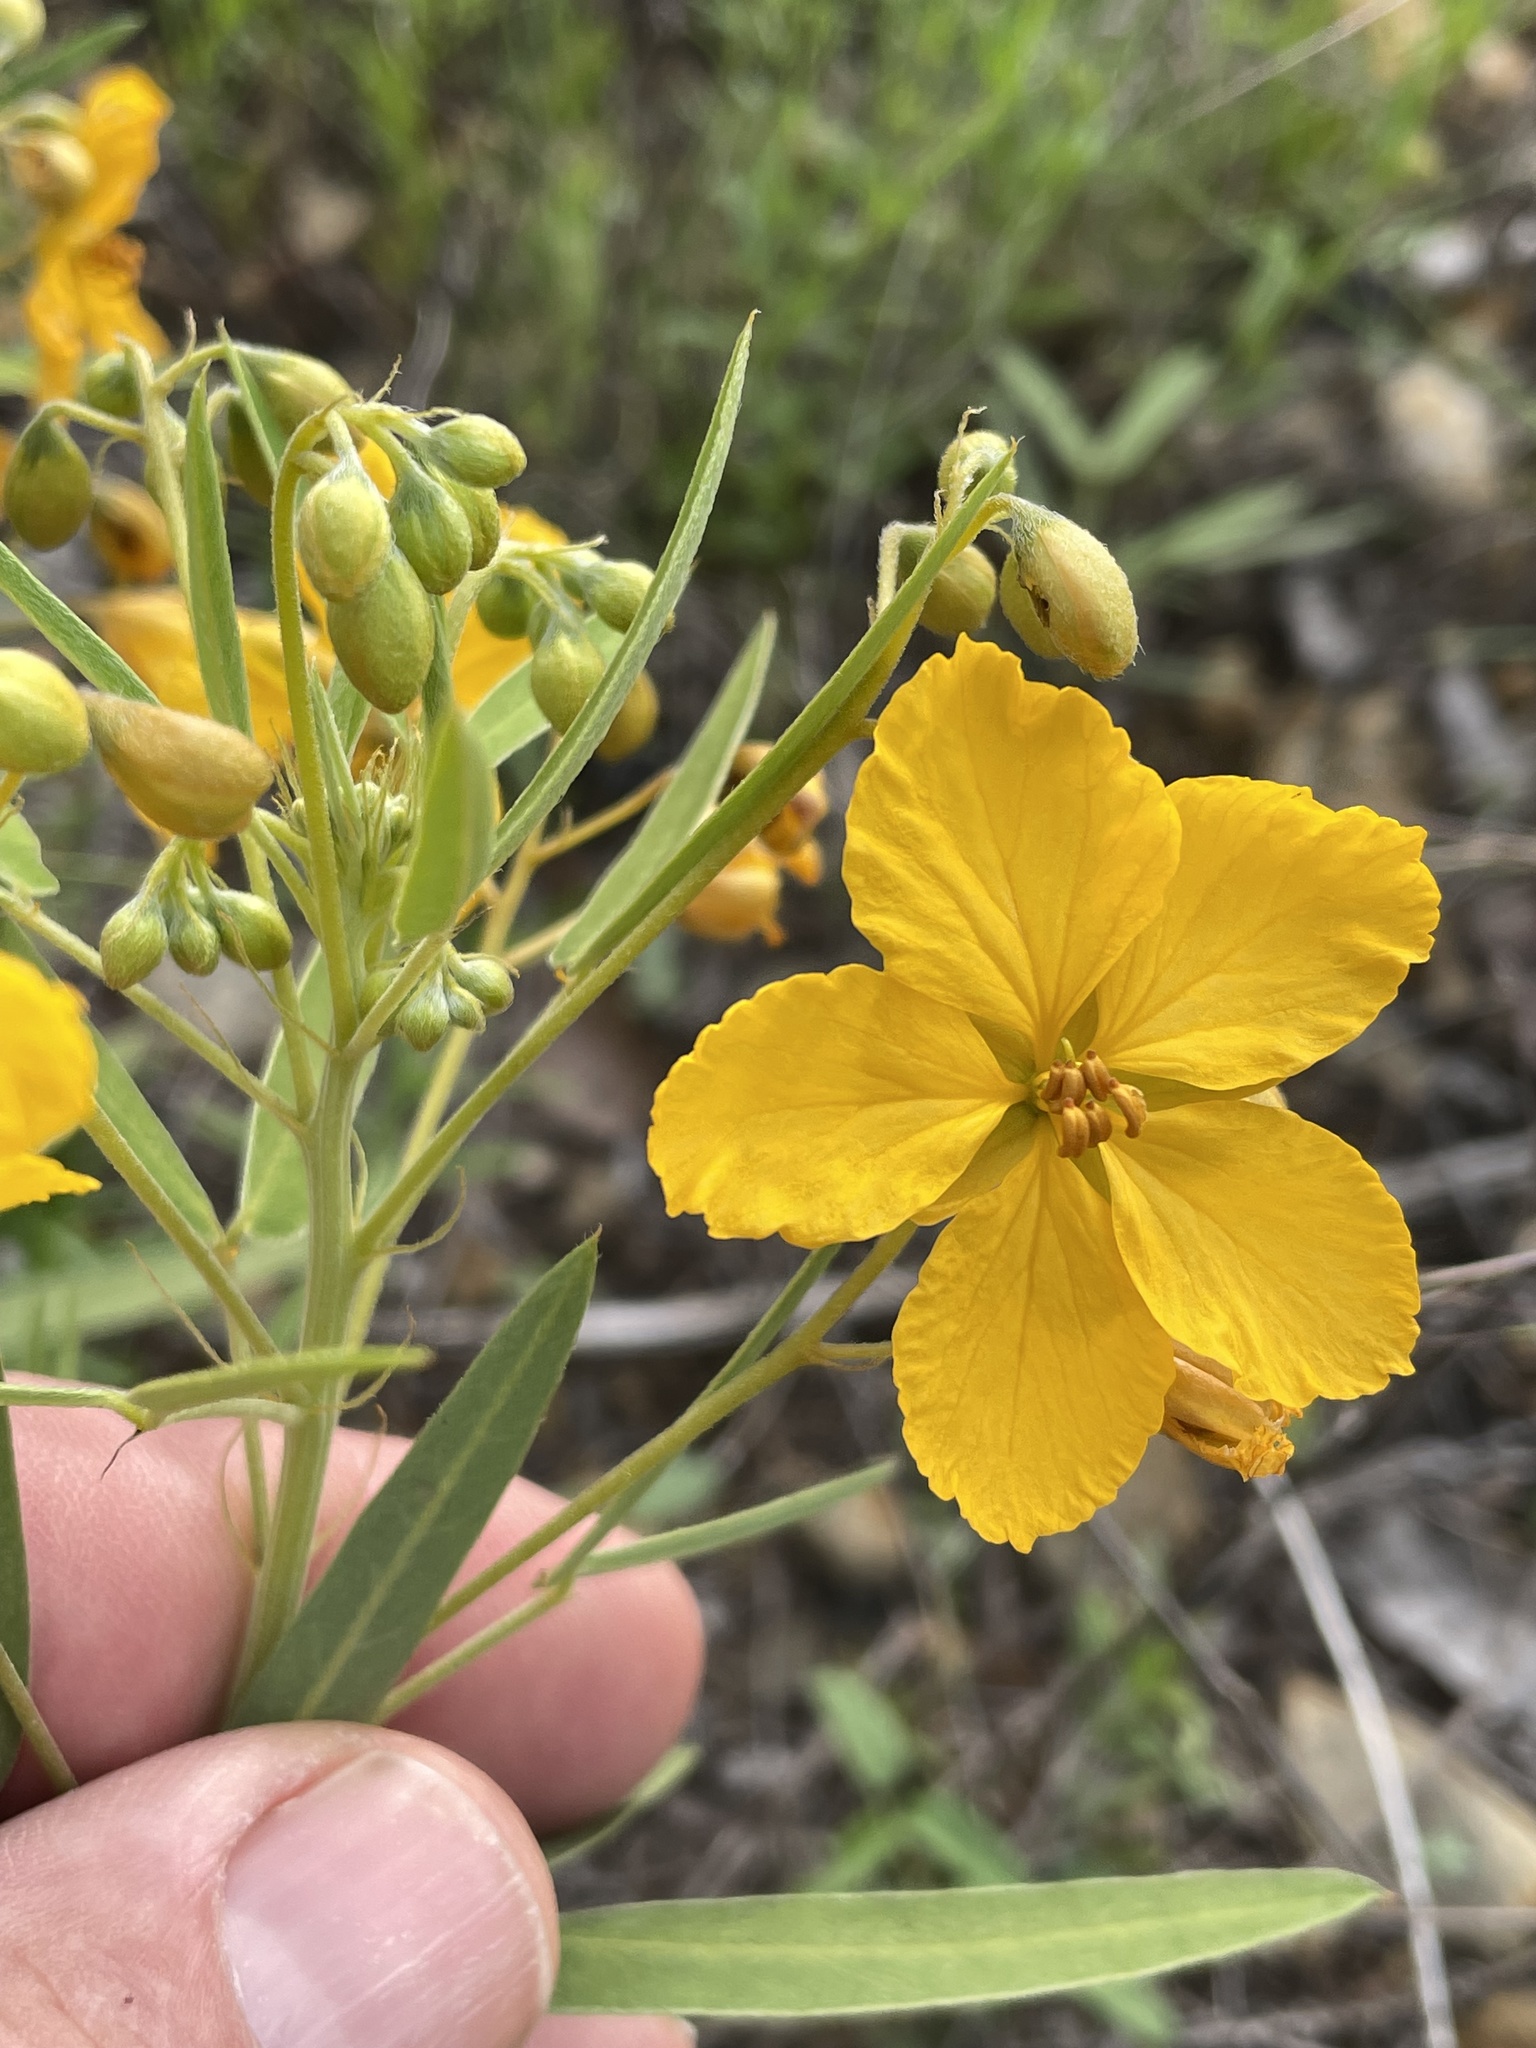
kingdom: Plantae
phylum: Tracheophyta
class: Magnoliopsida
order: Fabales
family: Fabaceae
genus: Senna
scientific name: Senna roemeriana
